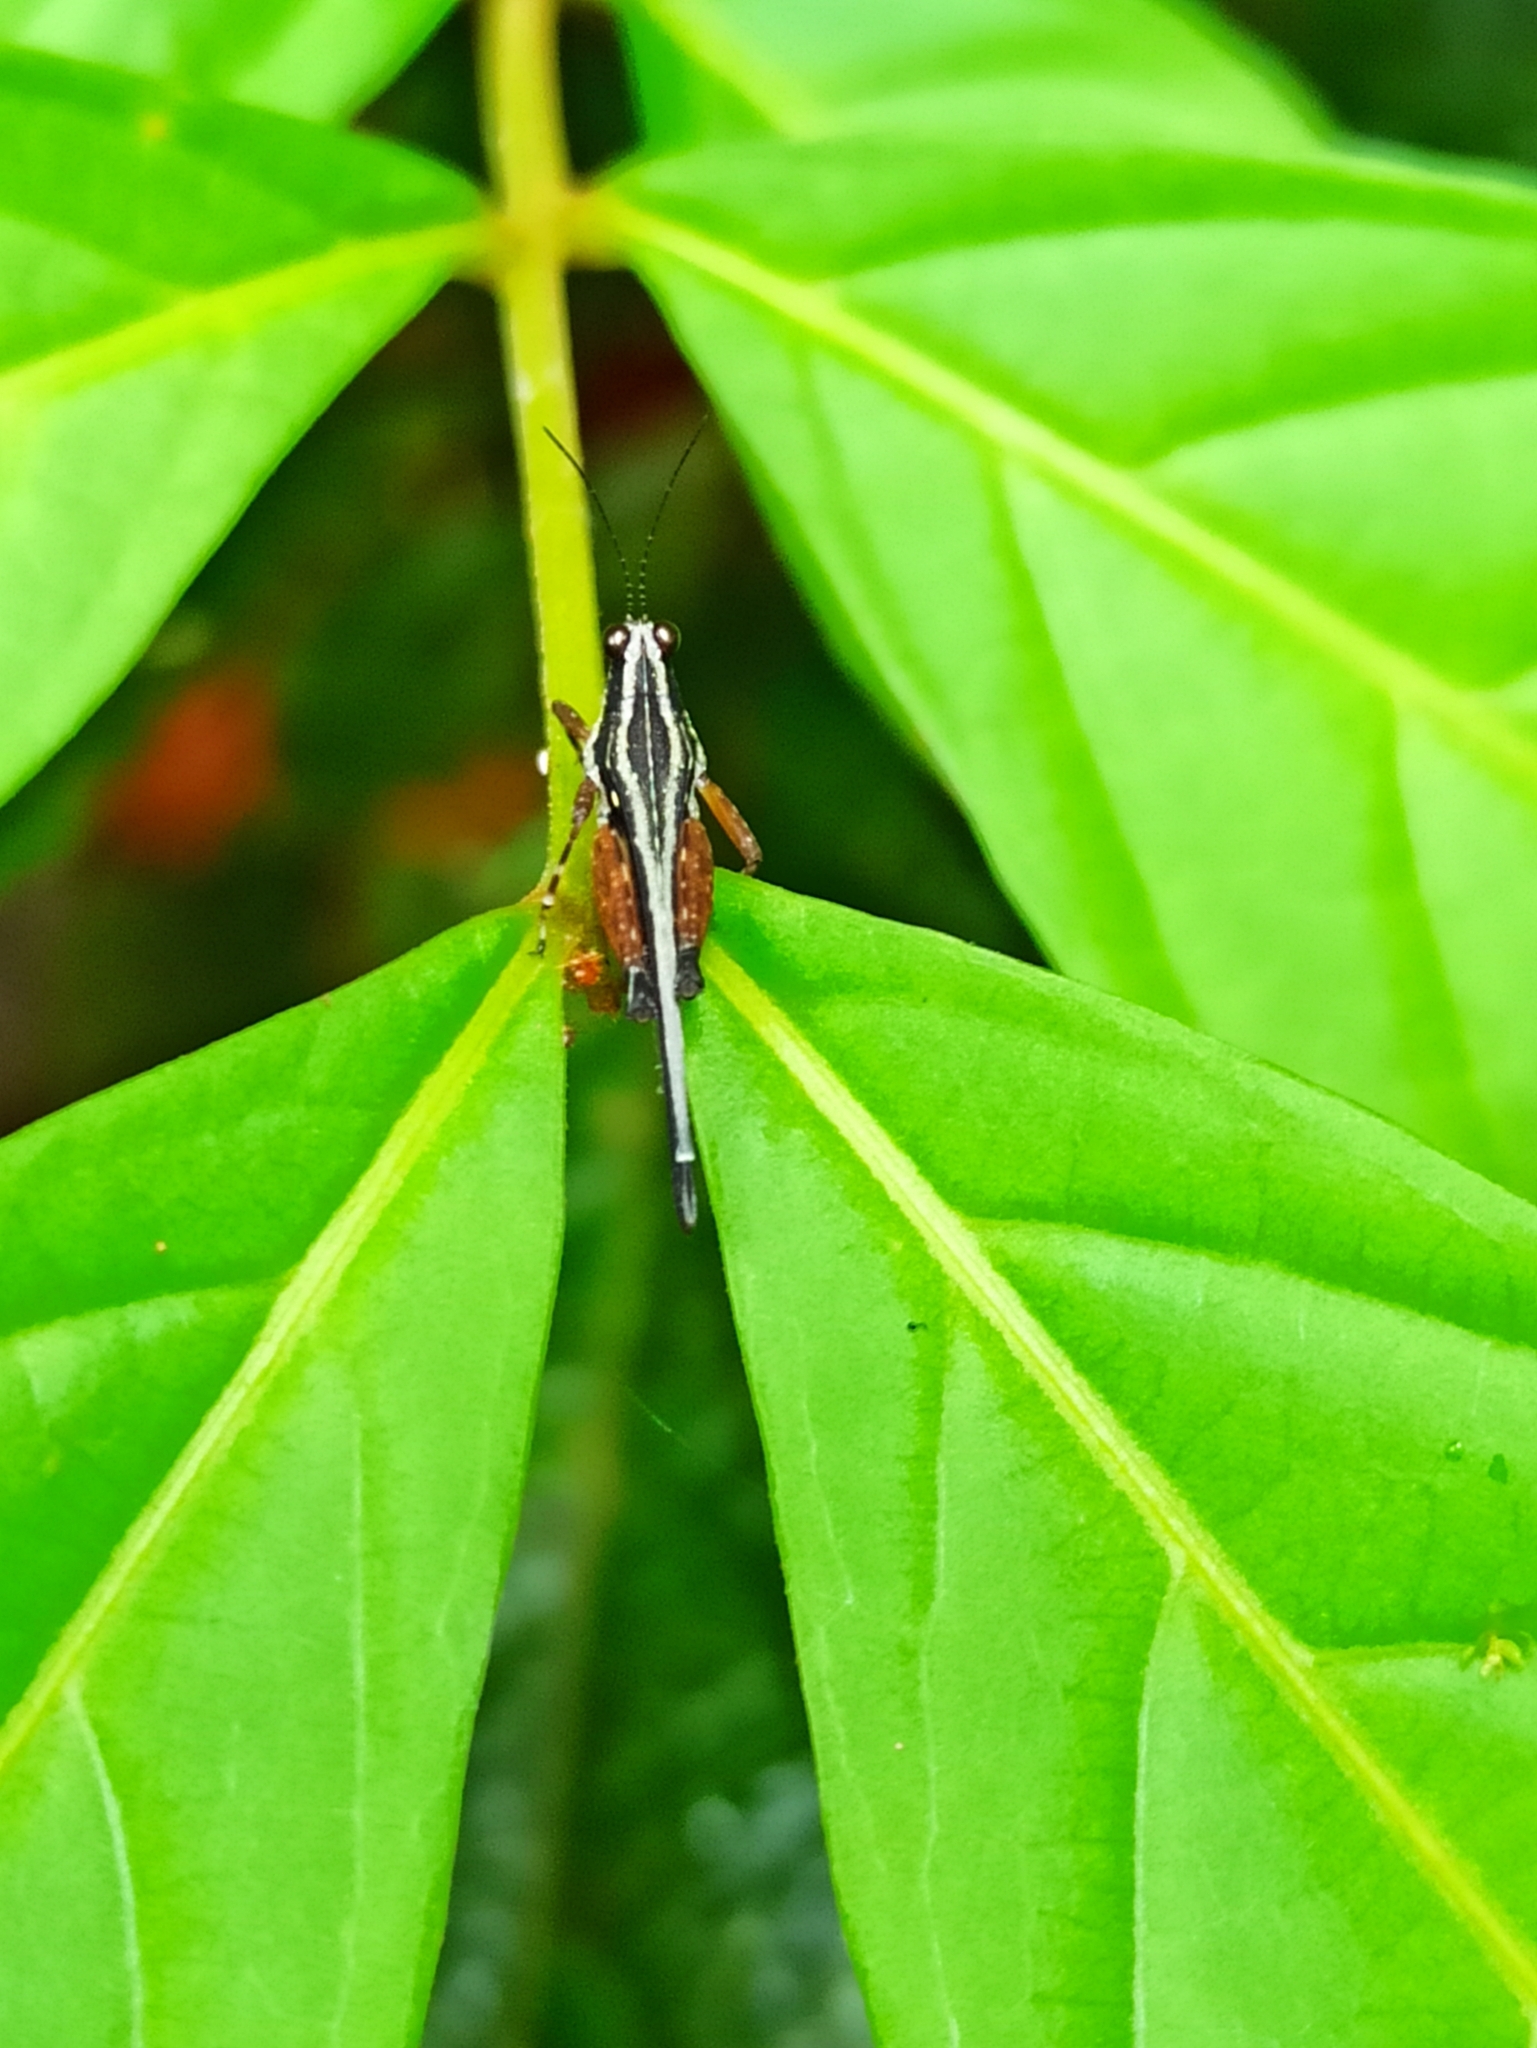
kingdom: Animalia
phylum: Arthropoda
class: Insecta
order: Orthoptera
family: Tetrigidae
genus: Scaria
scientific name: Scaria fasciata
